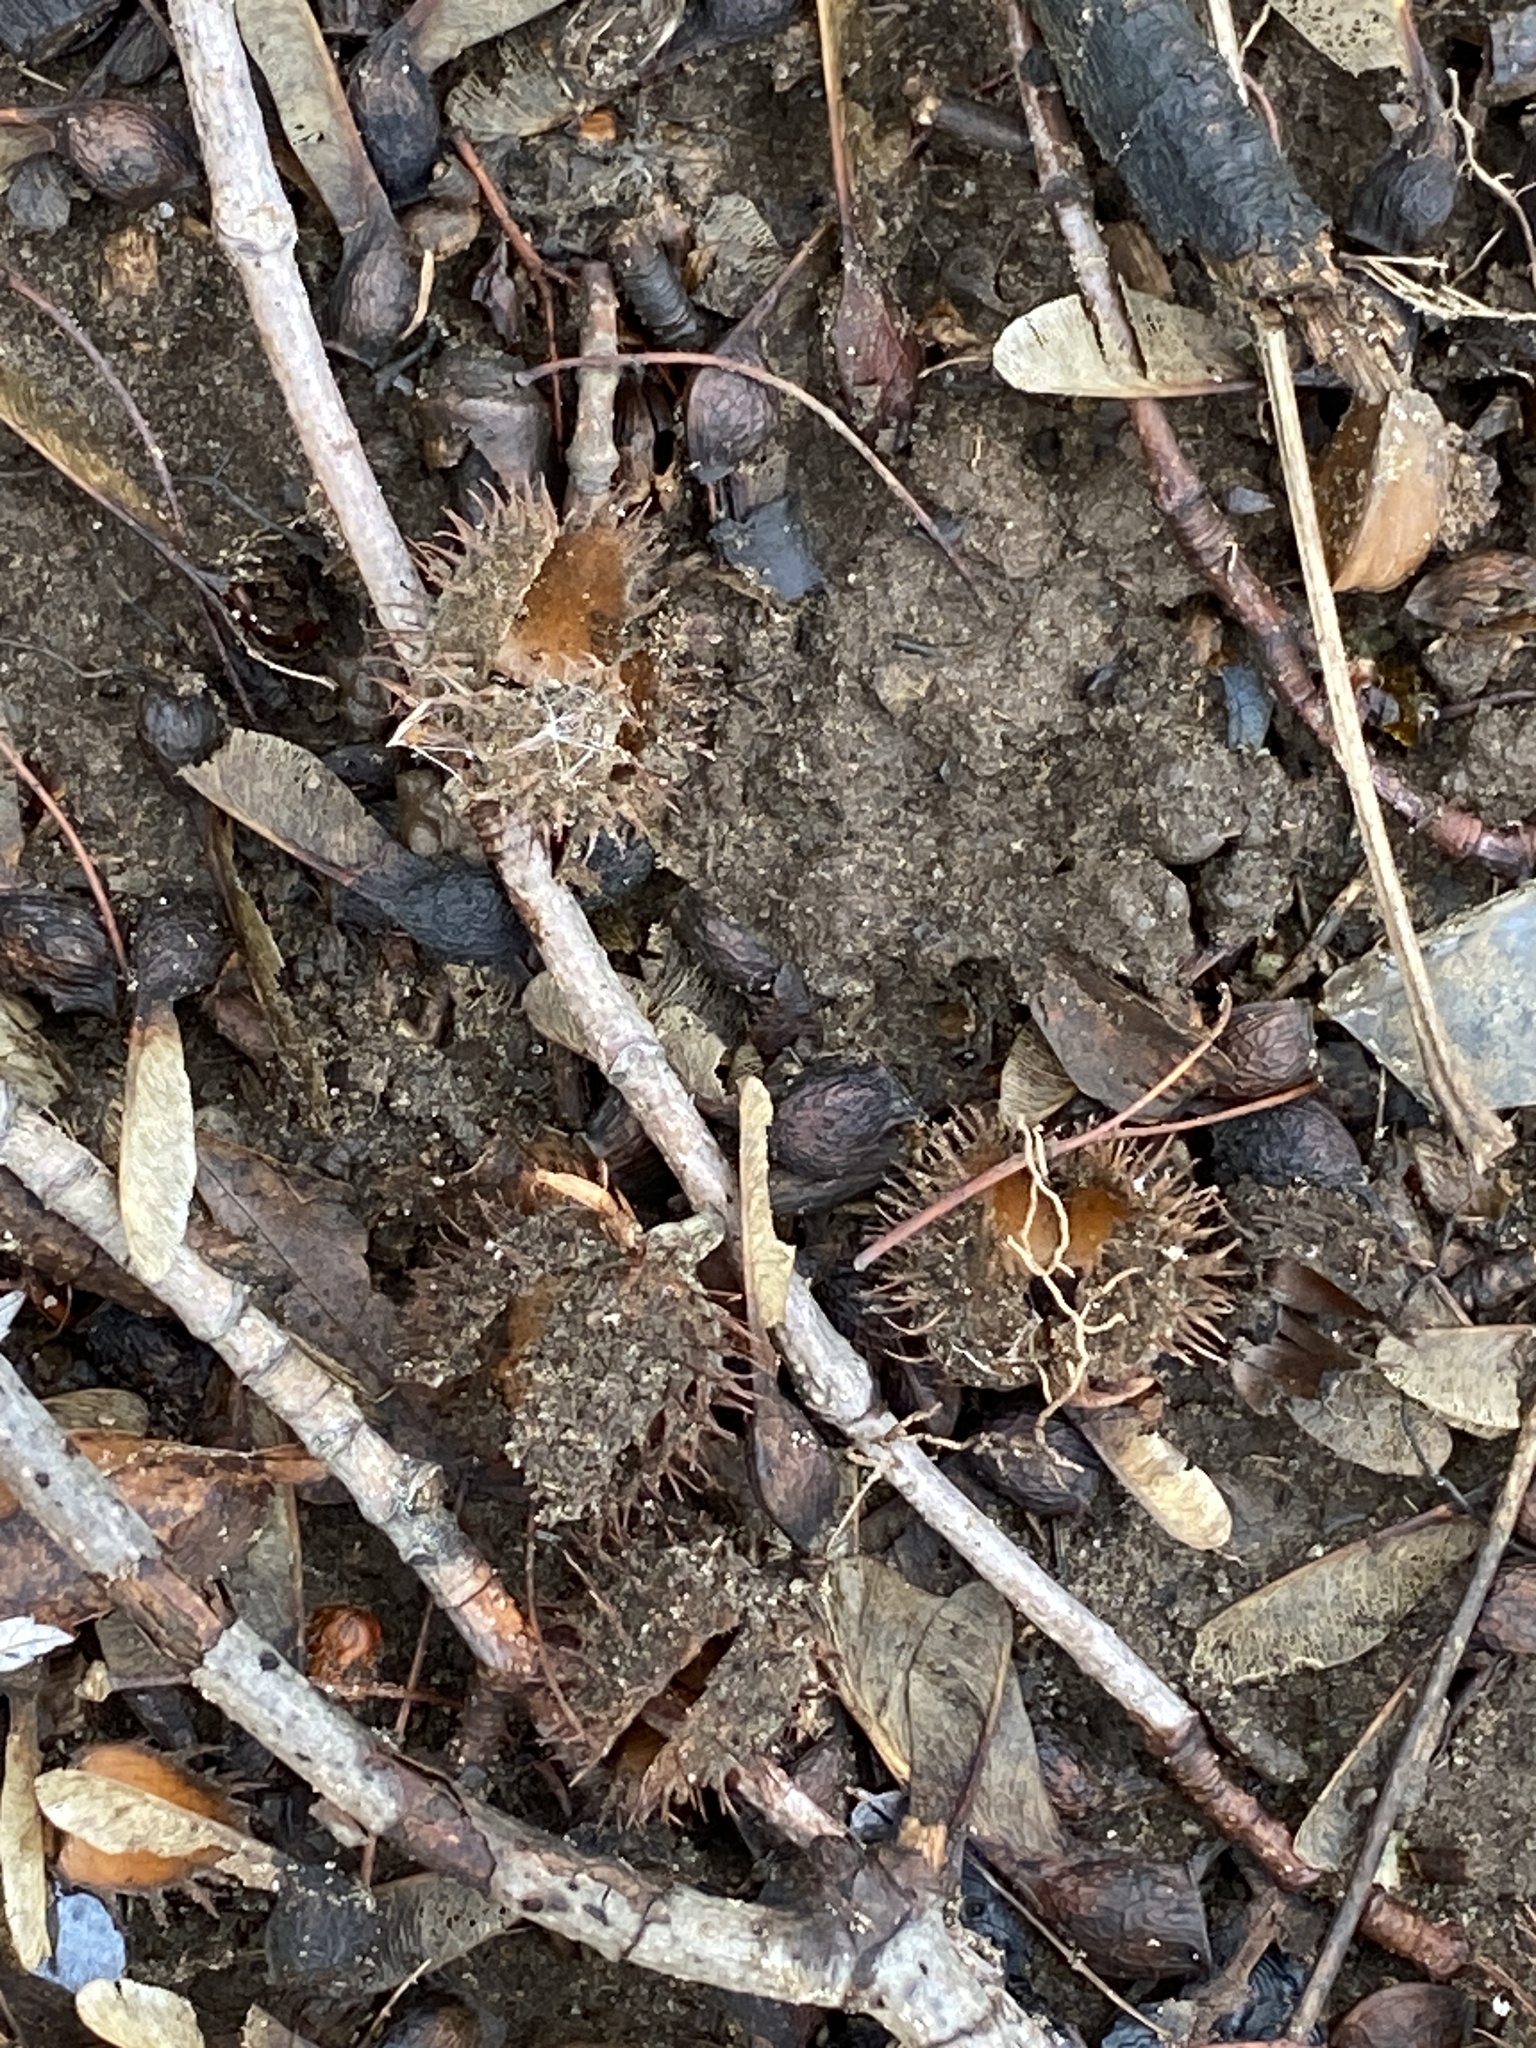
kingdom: Plantae
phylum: Tracheophyta
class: Magnoliopsida
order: Fagales
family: Fagaceae
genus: Fagus
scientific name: Fagus grandifolia
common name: American beech
